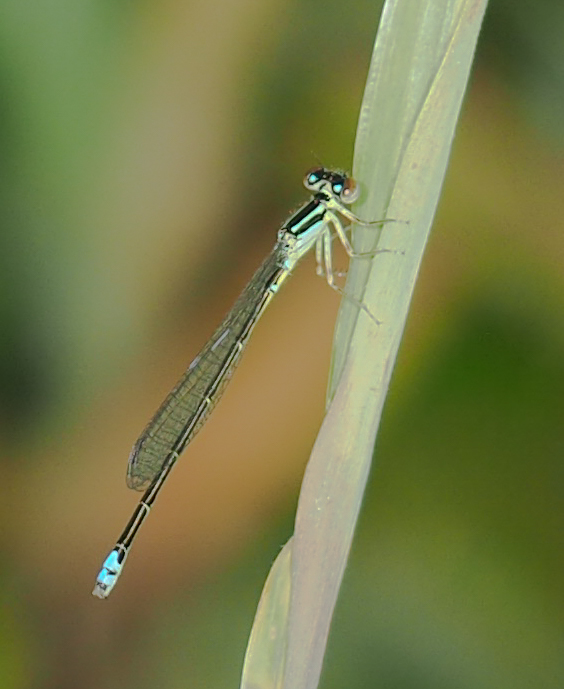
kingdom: Animalia
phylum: Arthropoda
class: Insecta
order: Odonata
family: Coenagrionidae
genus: Ischnura
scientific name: Ischnura verticalis
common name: Eastern forktail
